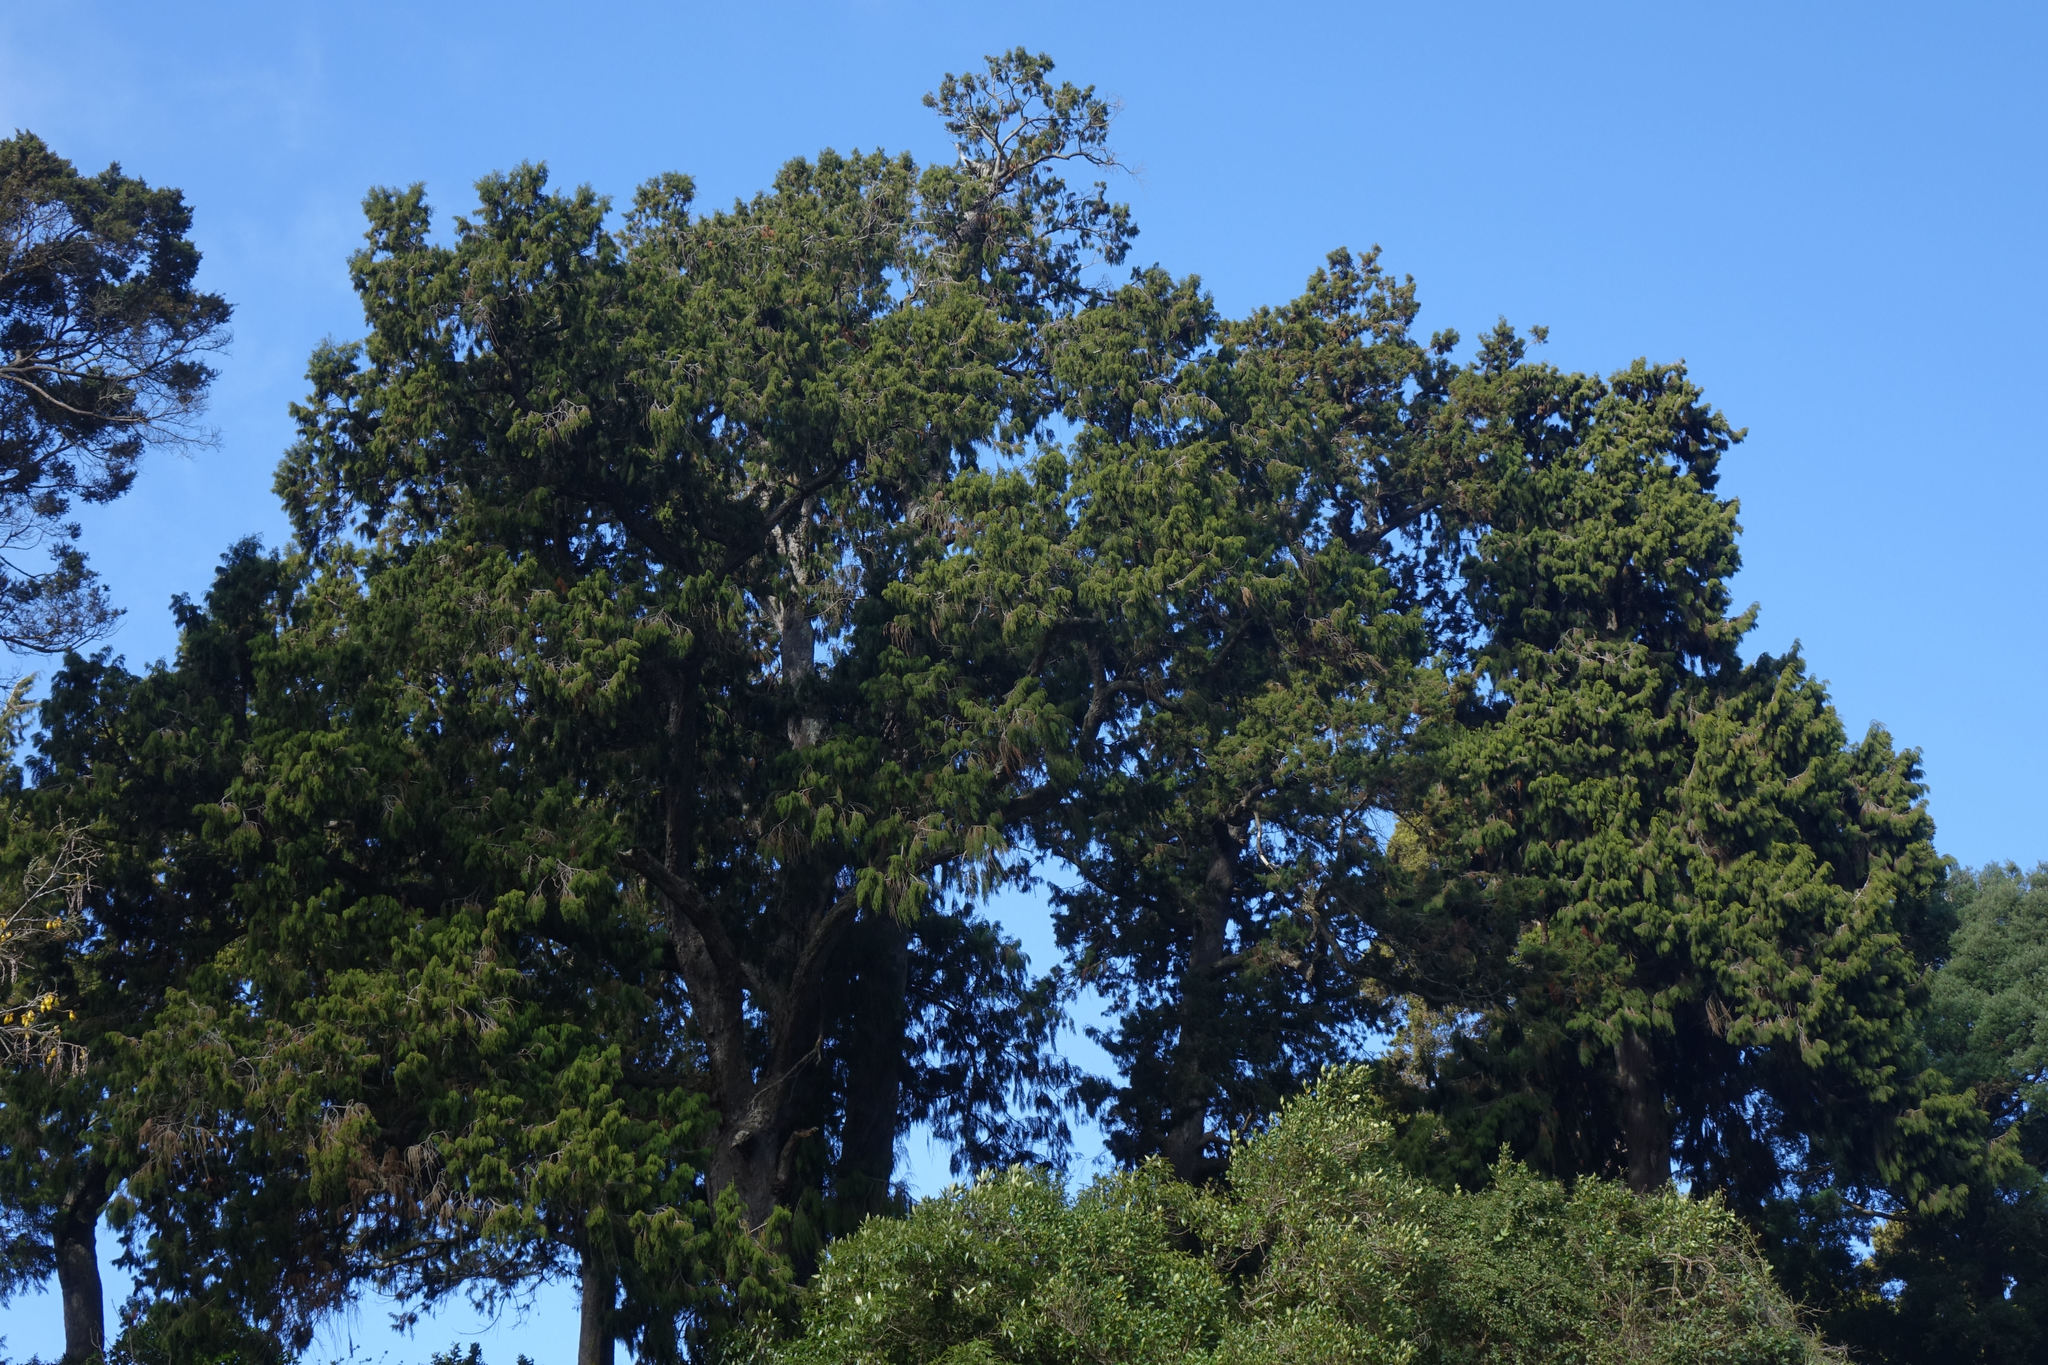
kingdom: Plantae
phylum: Tracheophyta
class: Pinopsida
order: Pinales
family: Podocarpaceae
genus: Dacrydium
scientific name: Dacrydium cupressinum
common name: Red pine
